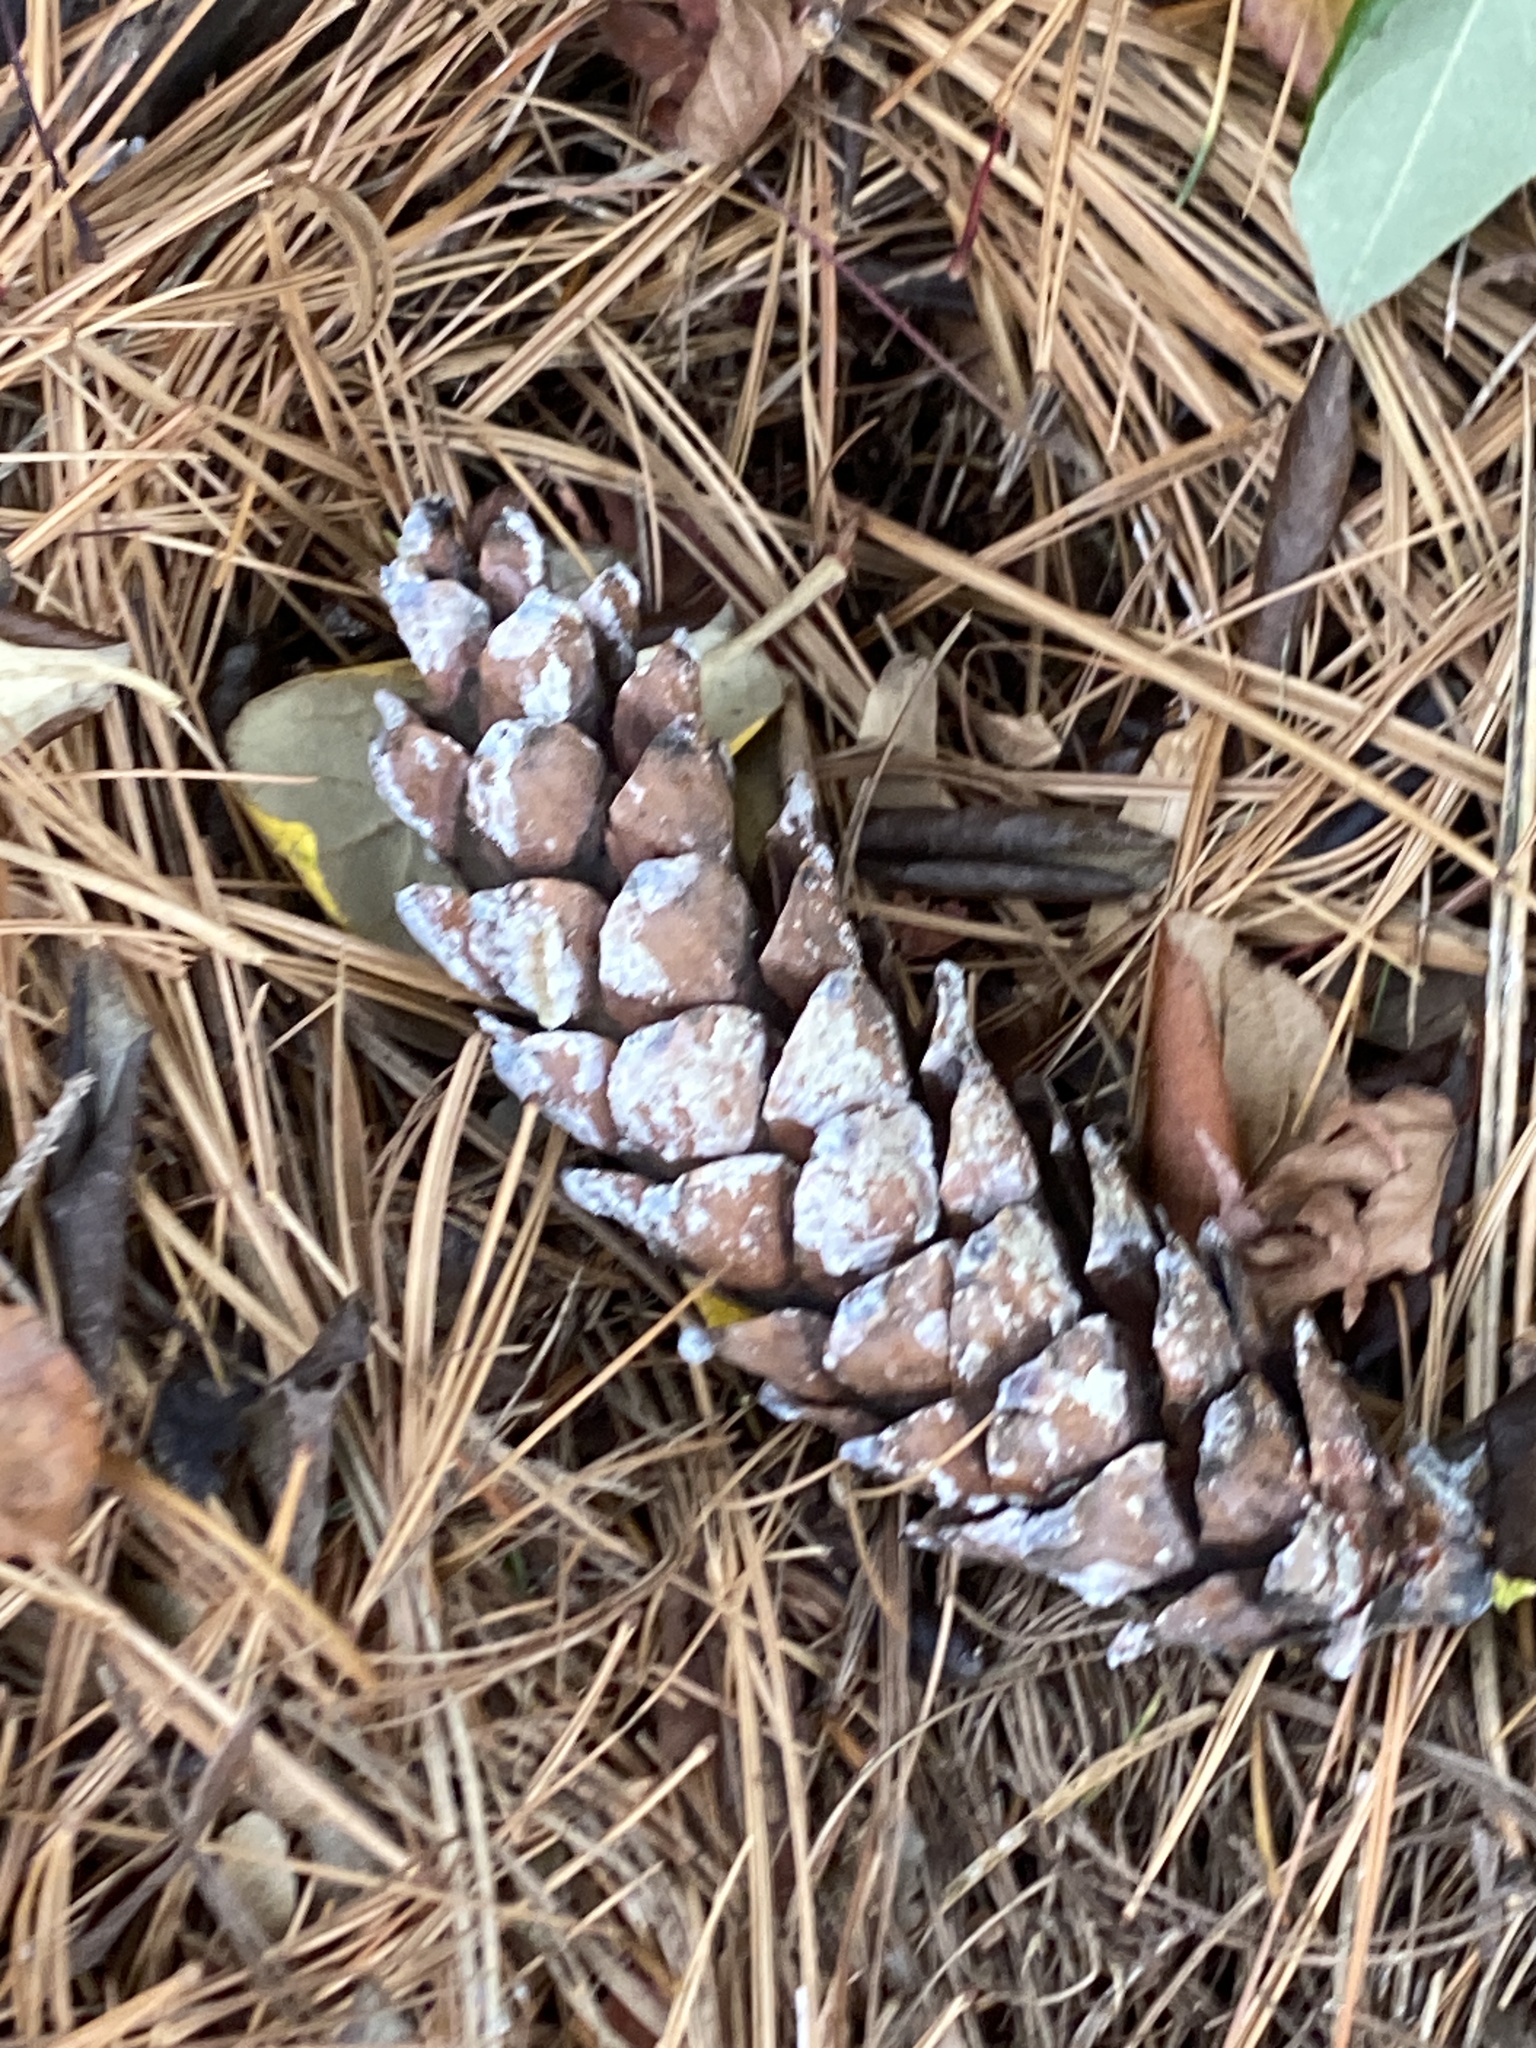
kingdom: Plantae
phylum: Tracheophyta
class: Pinopsida
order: Pinales
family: Pinaceae
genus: Pinus
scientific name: Pinus strobus
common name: Weymouth pine
